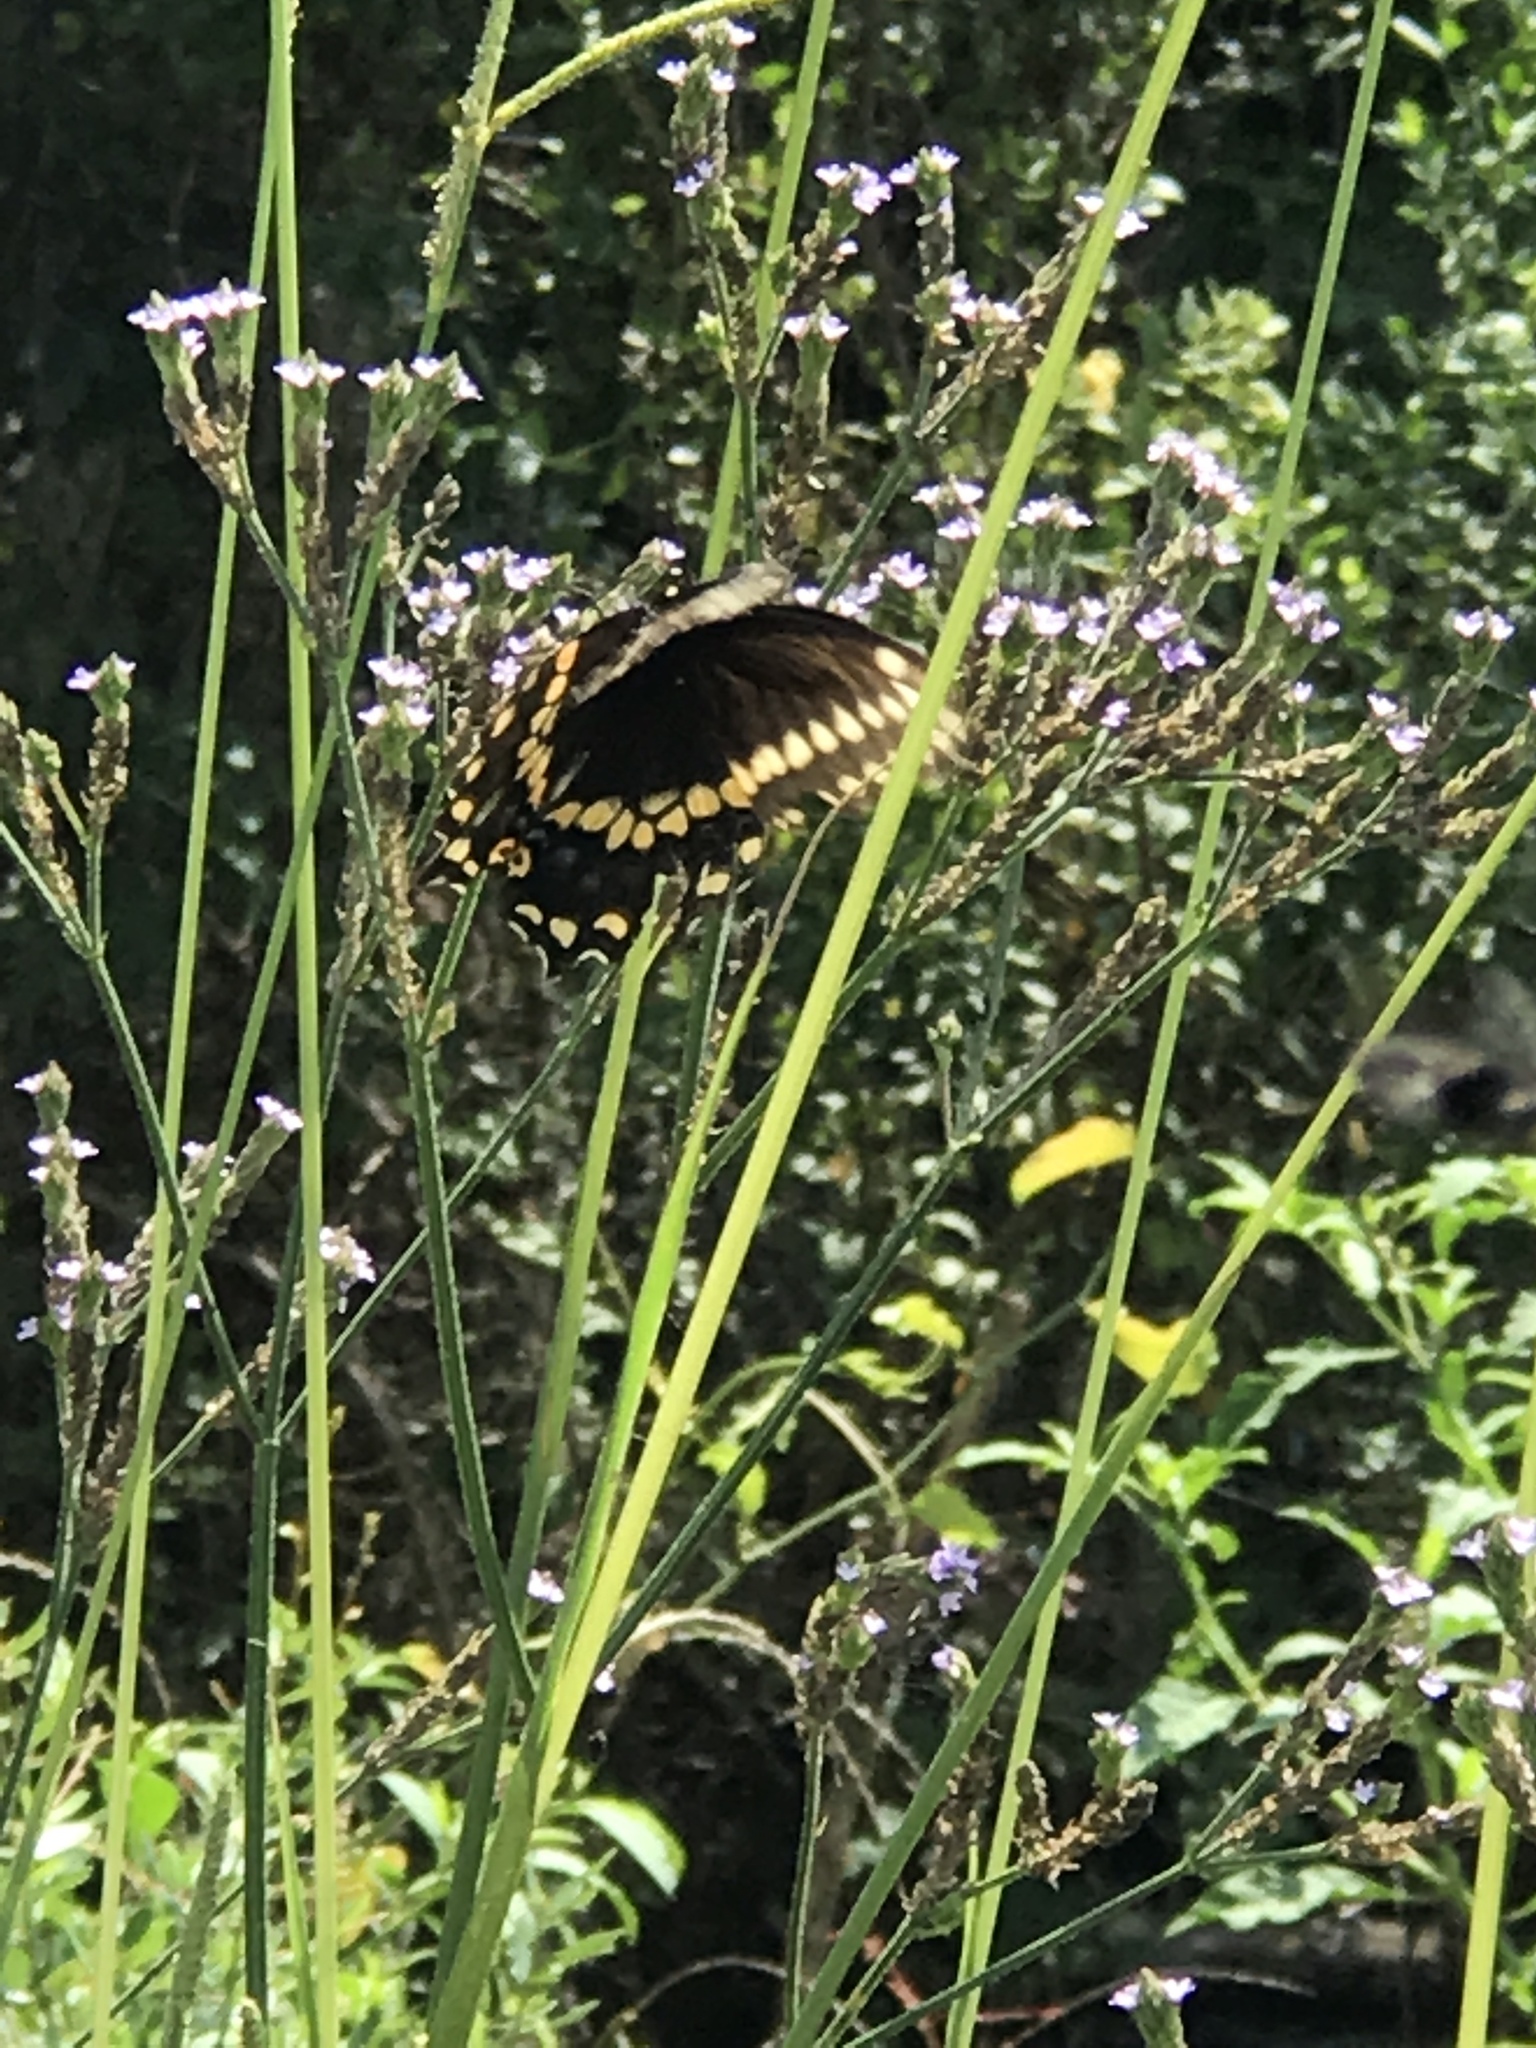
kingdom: Animalia
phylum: Arthropoda
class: Insecta
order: Lepidoptera
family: Papilionidae
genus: Papilio
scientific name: Papilio polyxenes
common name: Black swallowtail
